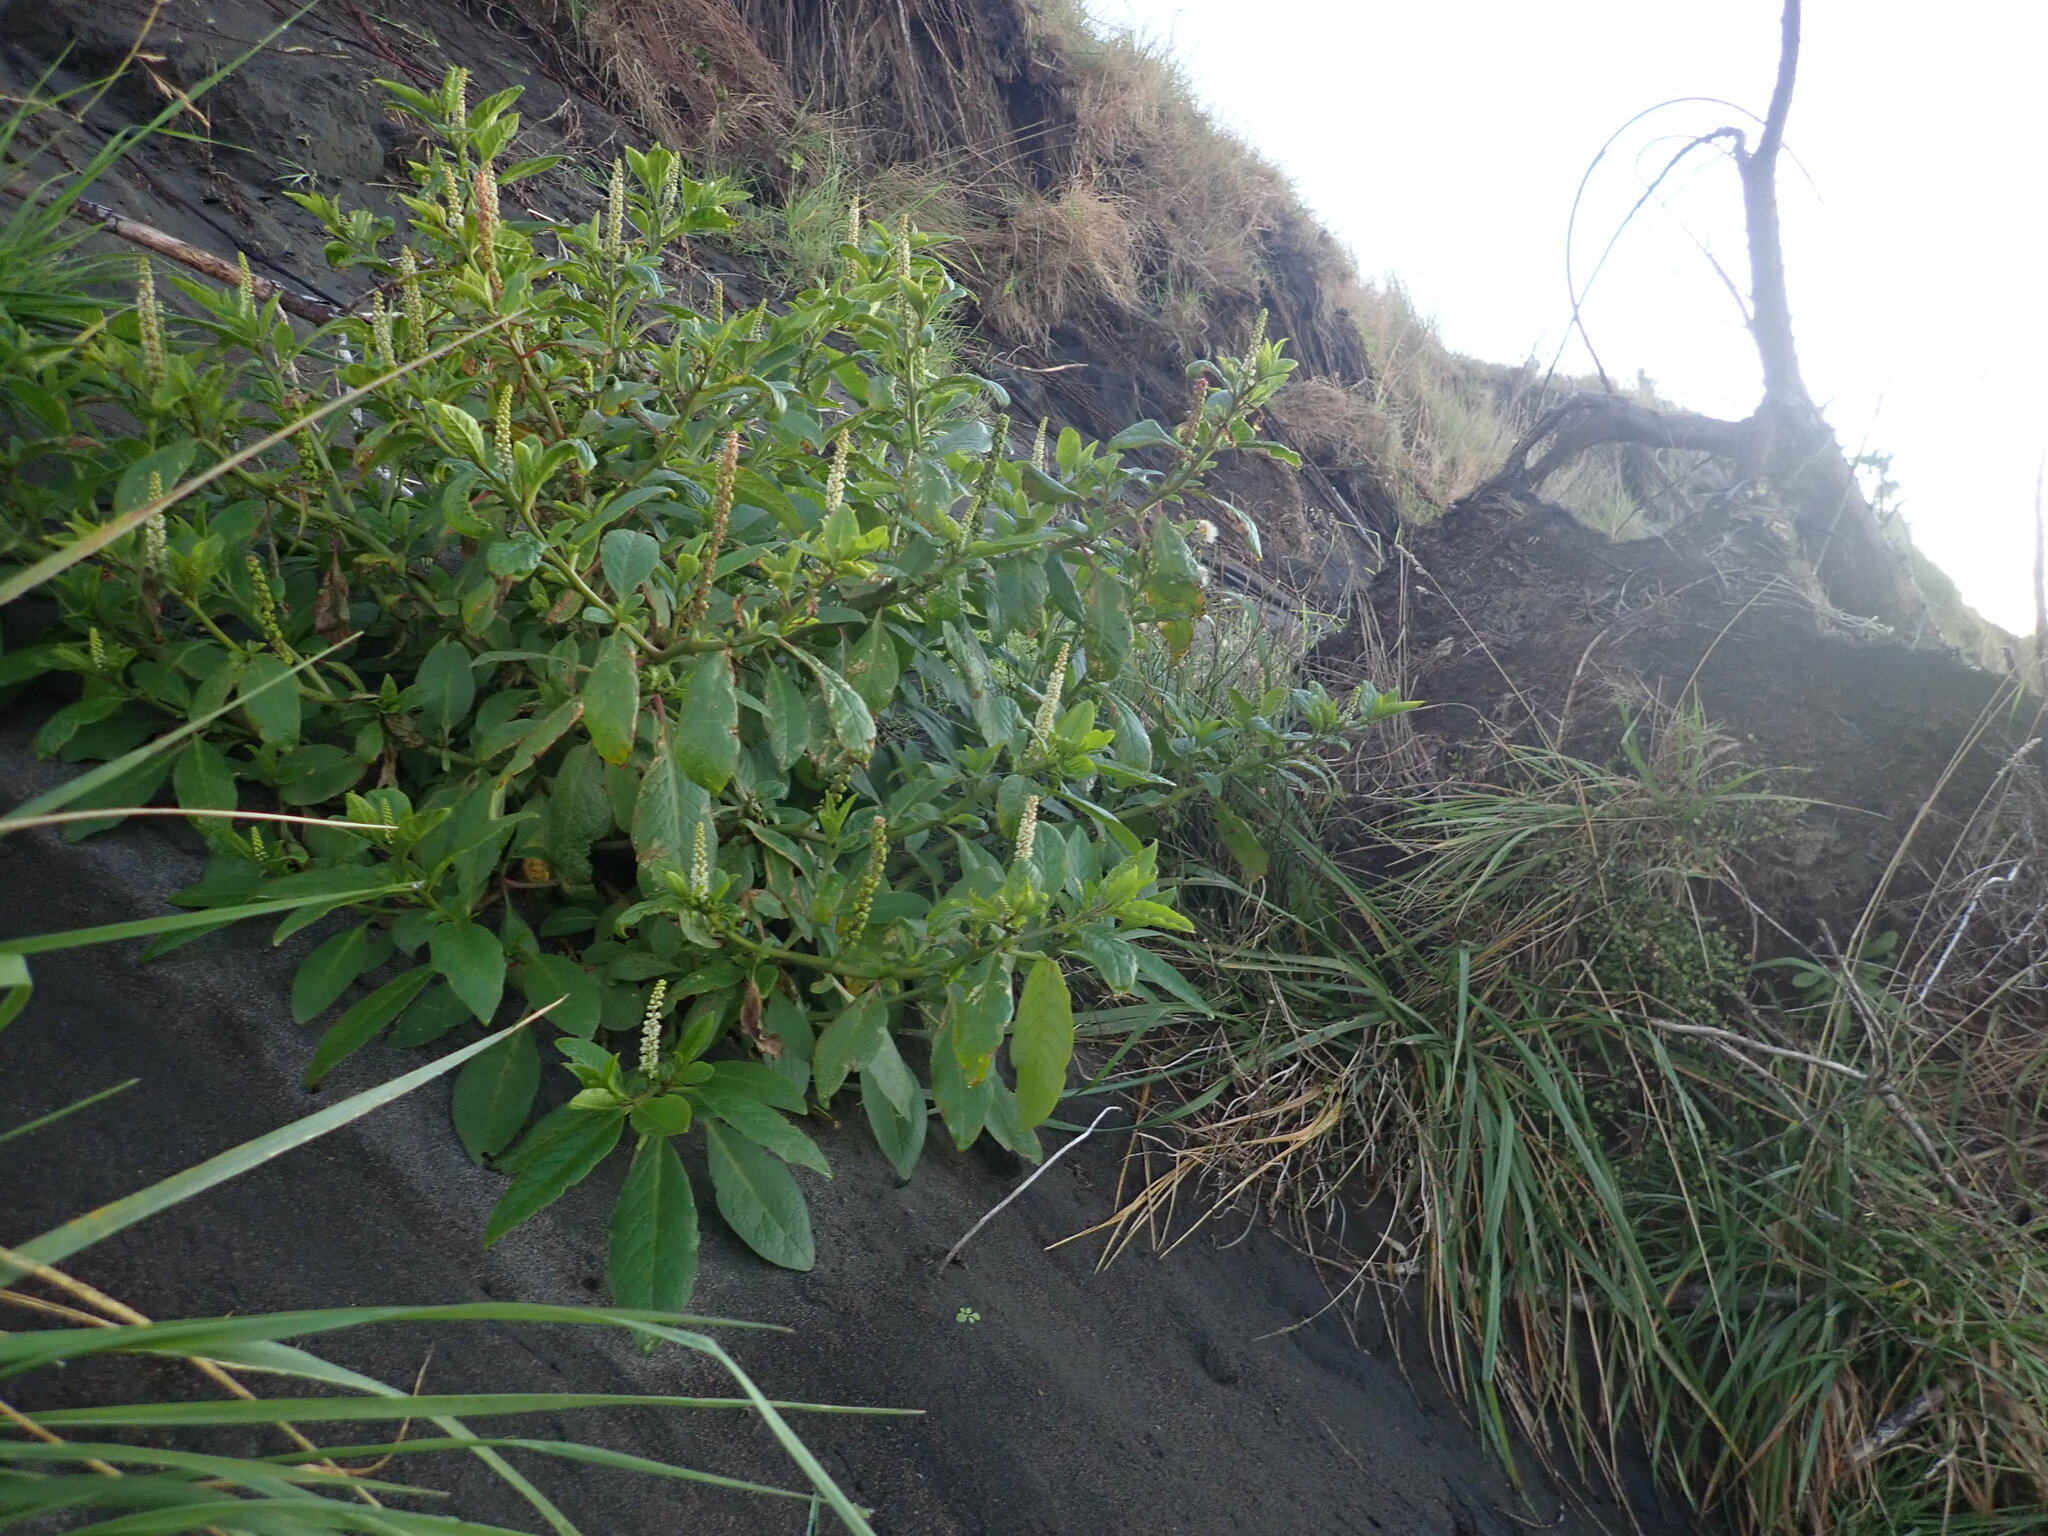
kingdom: Plantae
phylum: Tracheophyta
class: Magnoliopsida
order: Caryophyllales
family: Phytolaccaceae
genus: Phytolacca
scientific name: Phytolacca icosandra
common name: Button pokeweed
